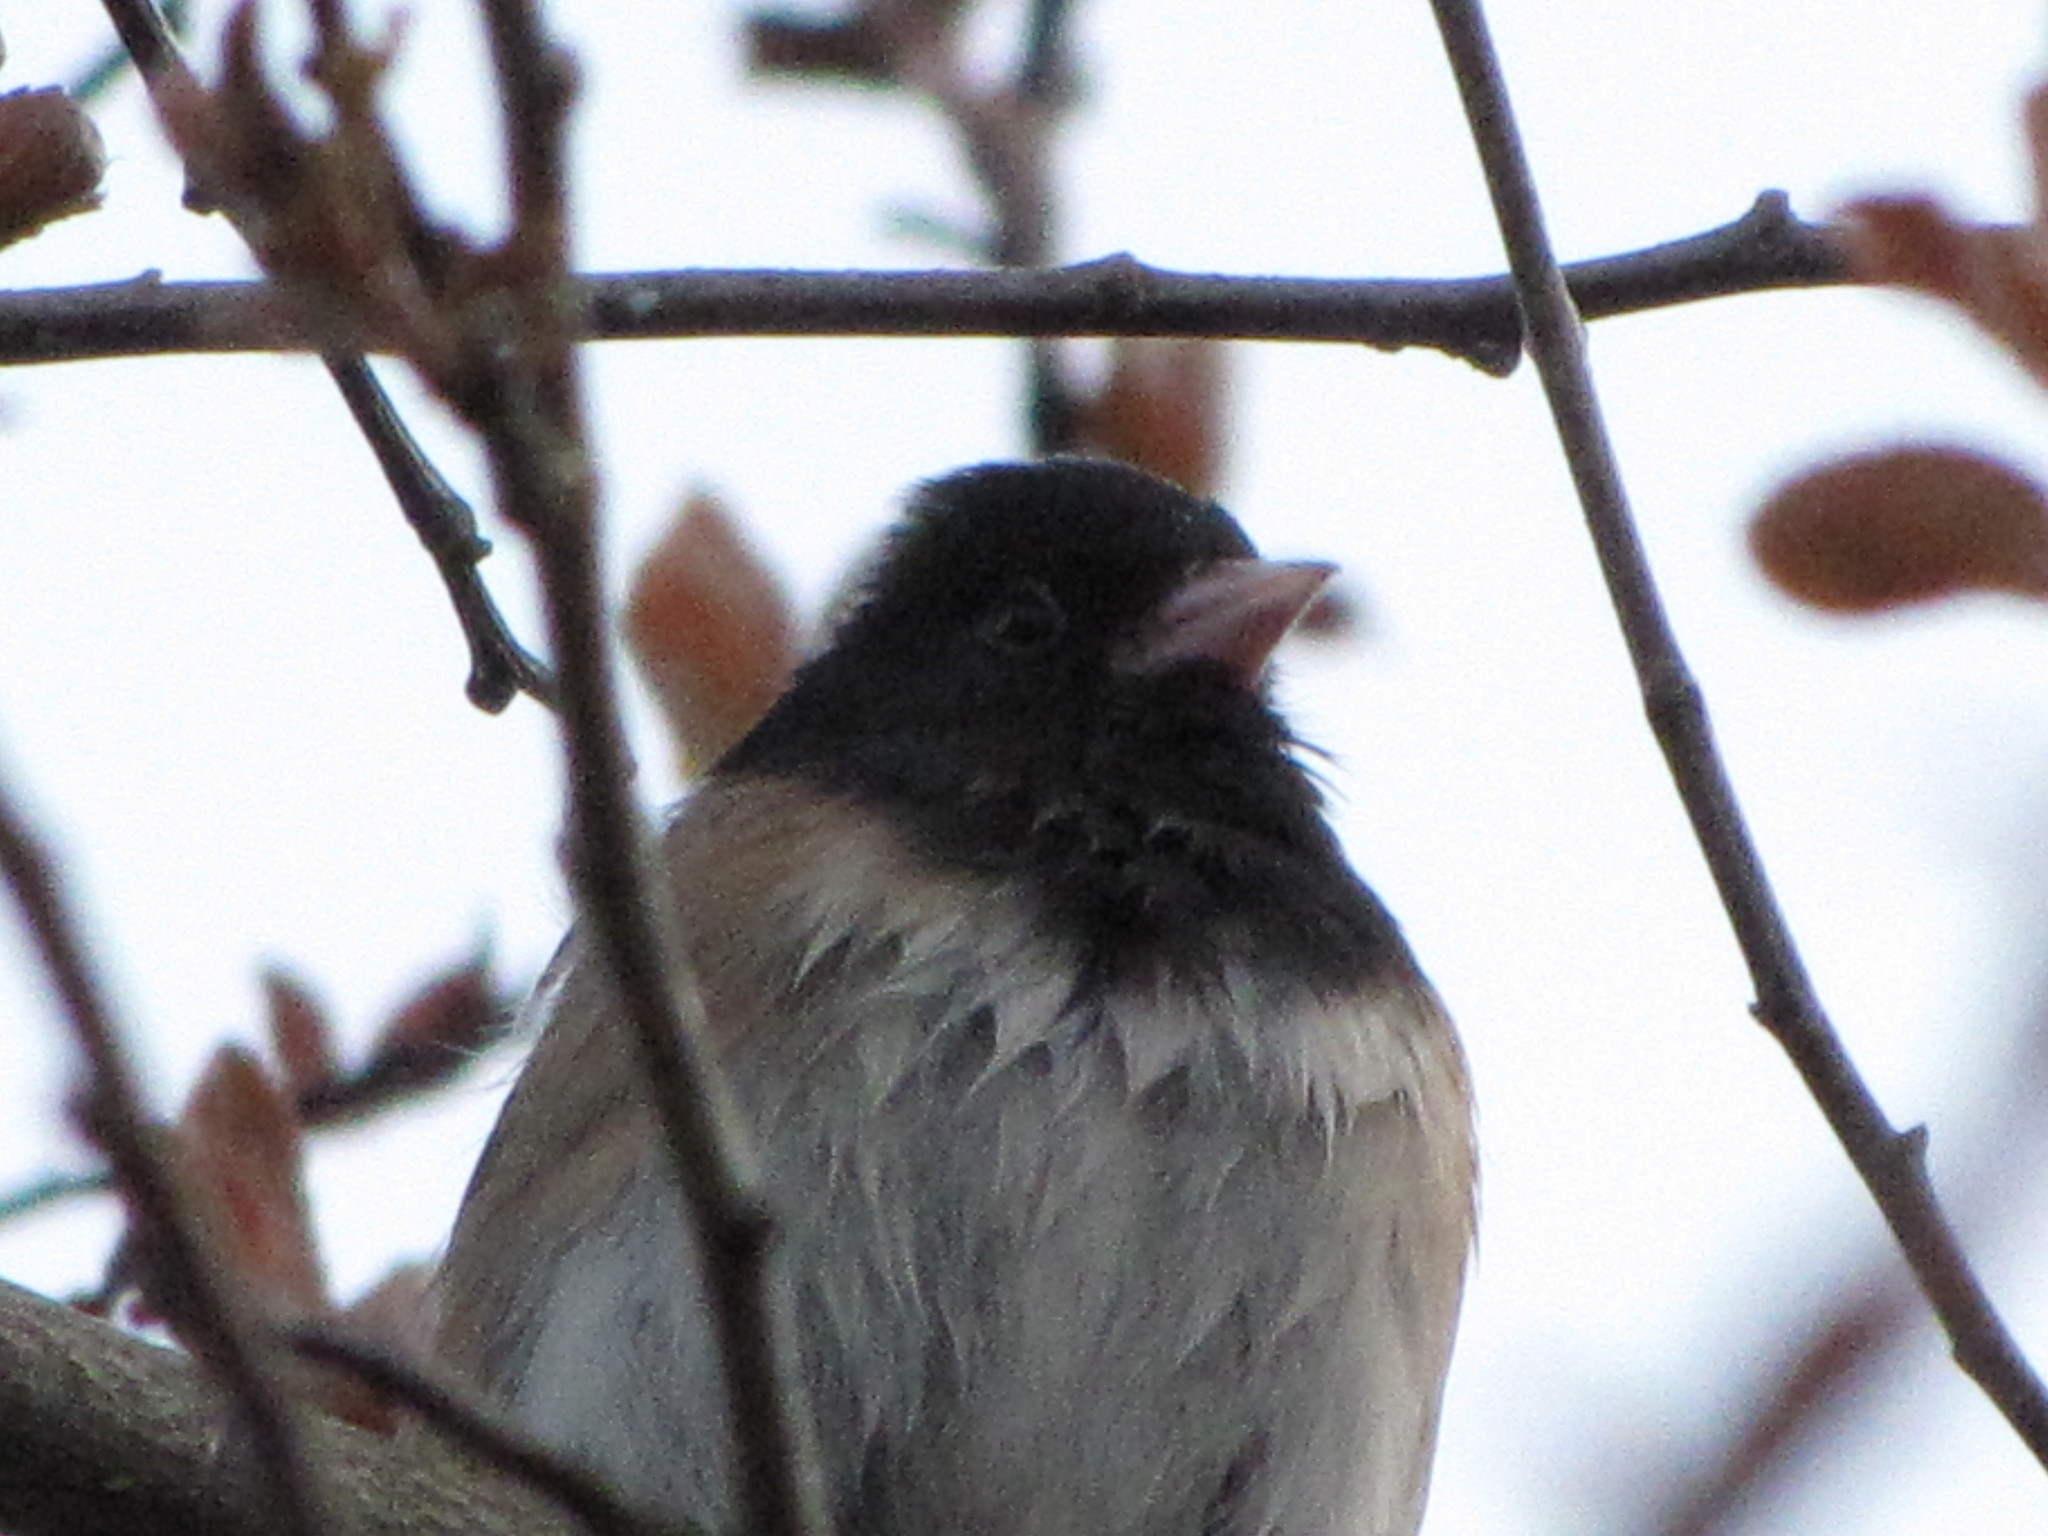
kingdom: Animalia
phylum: Chordata
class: Aves
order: Passeriformes
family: Passerellidae
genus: Junco
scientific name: Junco hyemalis
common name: Dark-eyed junco
